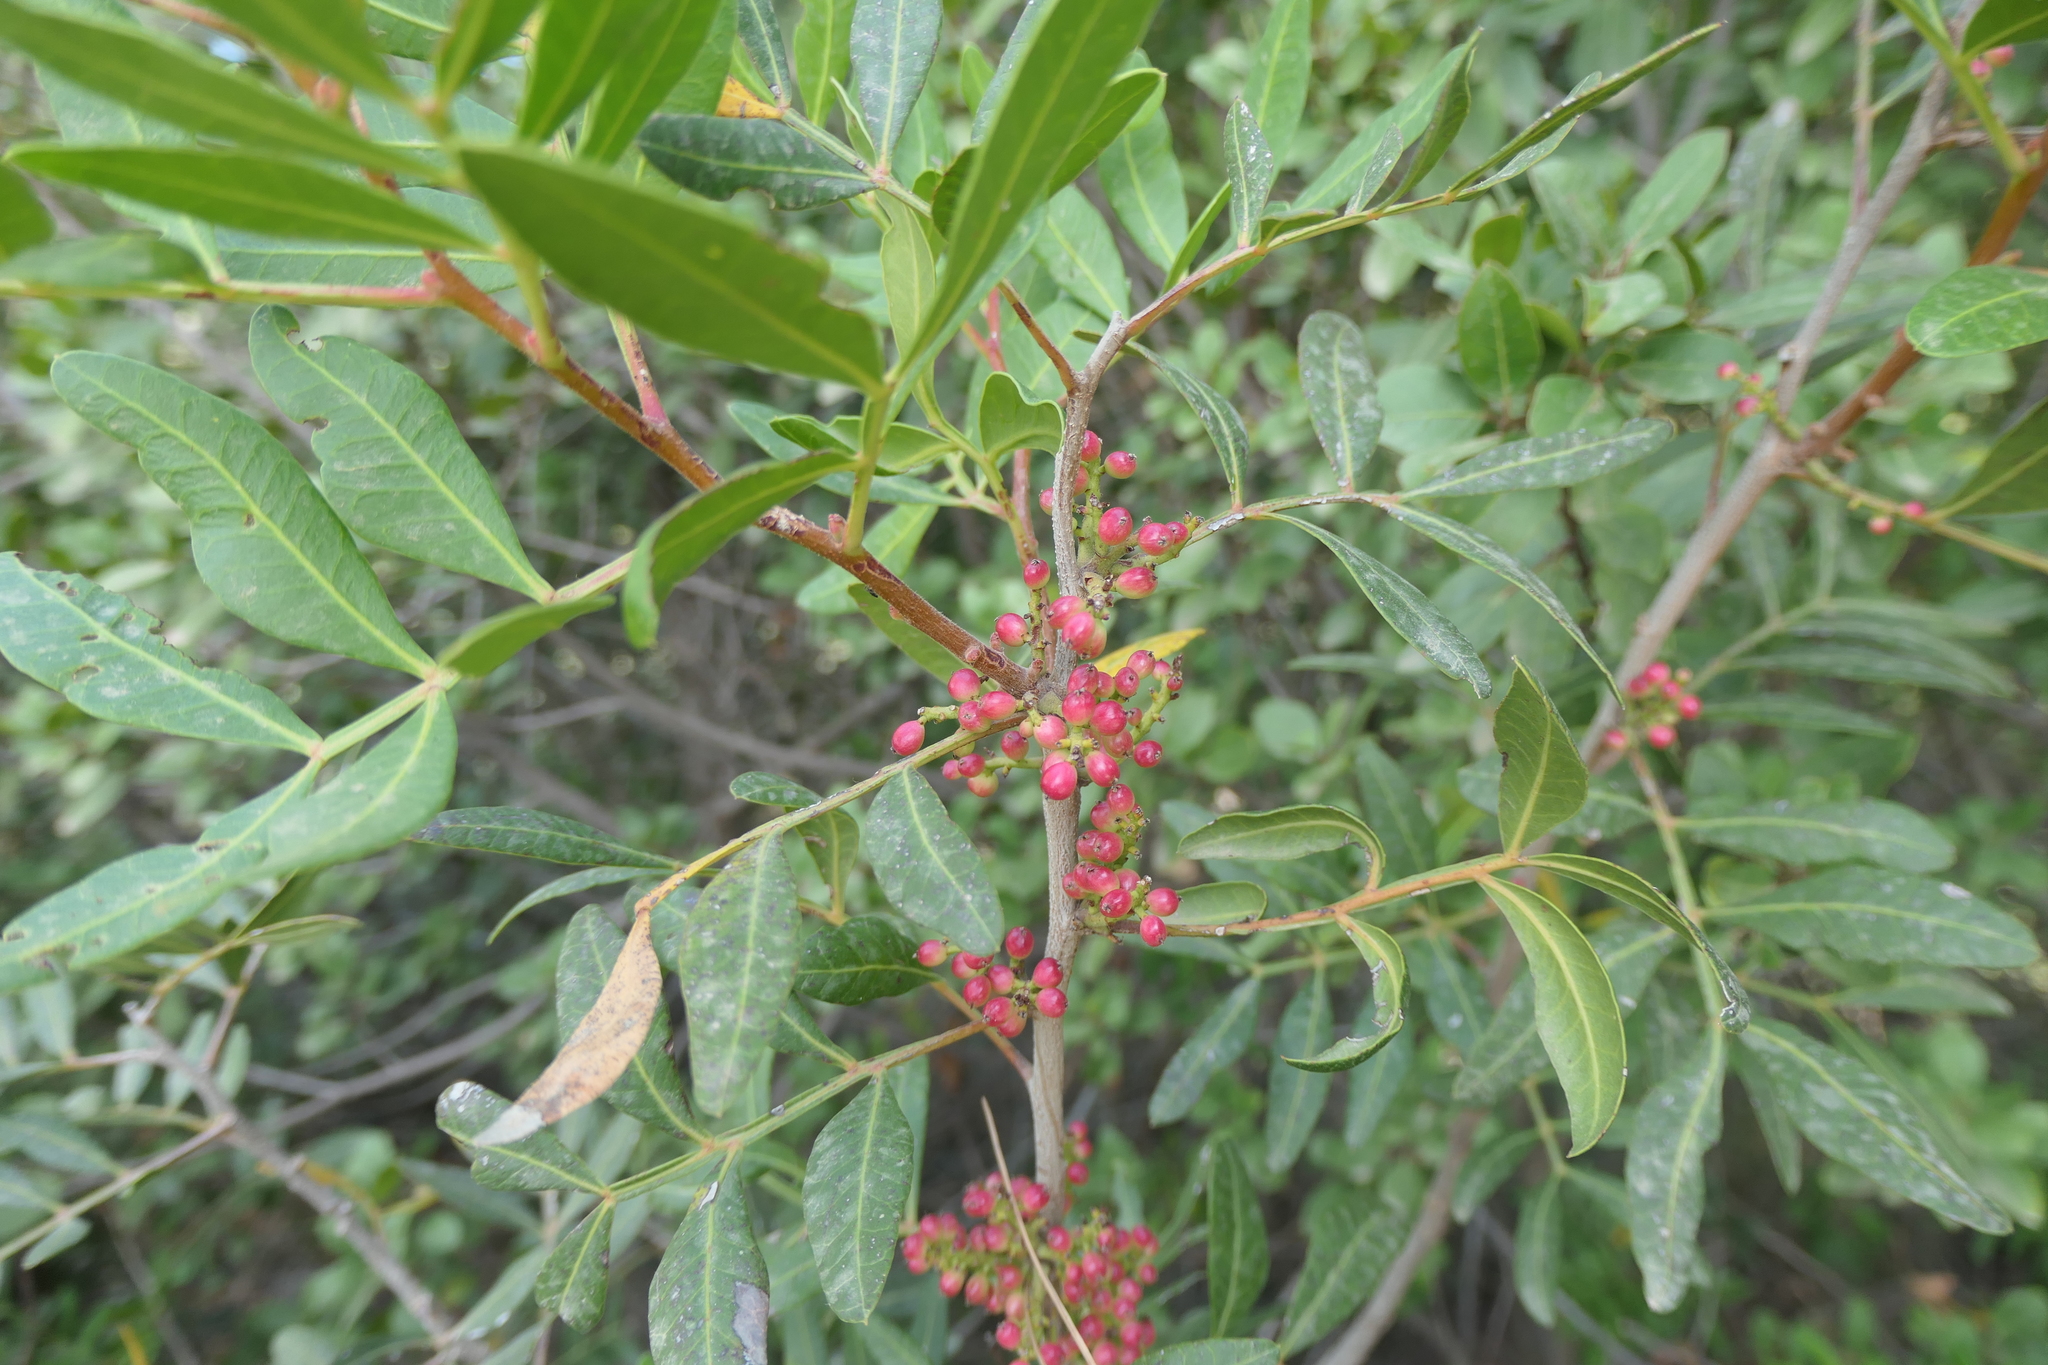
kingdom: Plantae
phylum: Tracheophyta
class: Magnoliopsida
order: Sapindales
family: Anacardiaceae
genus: Pistacia
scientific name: Pistacia lentiscus
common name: Lentisk
